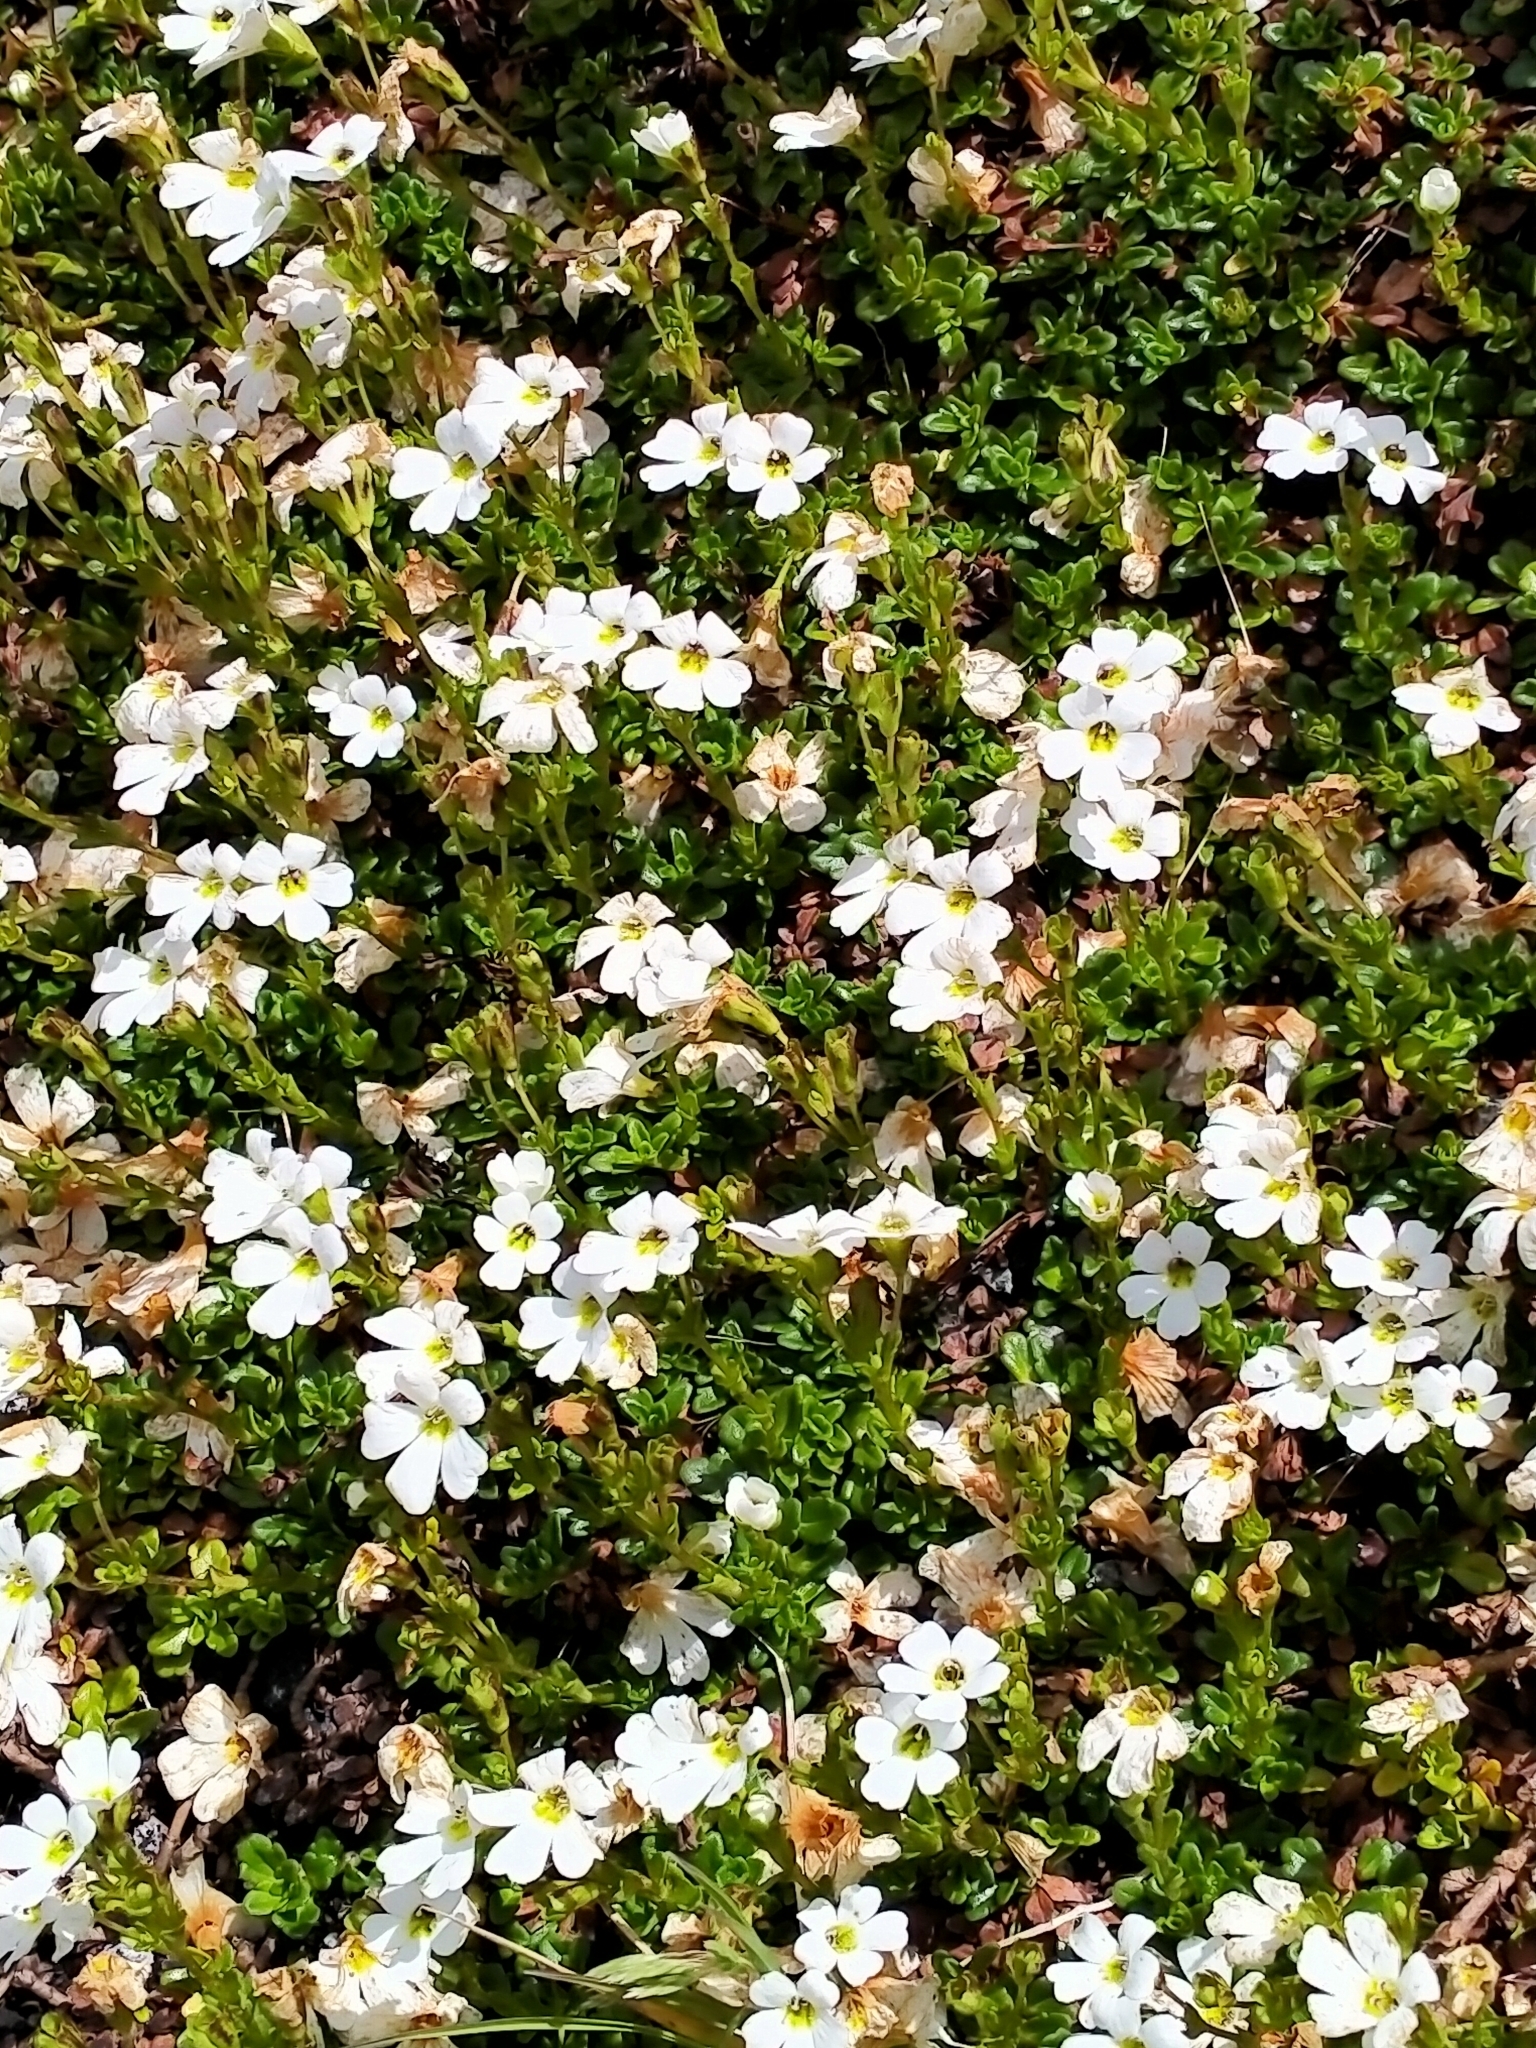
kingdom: Plantae
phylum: Tracheophyta
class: Magnoliopsida
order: Lamiales
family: Plantaginaceae
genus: Ourisia
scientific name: Ourisia caespitosa
